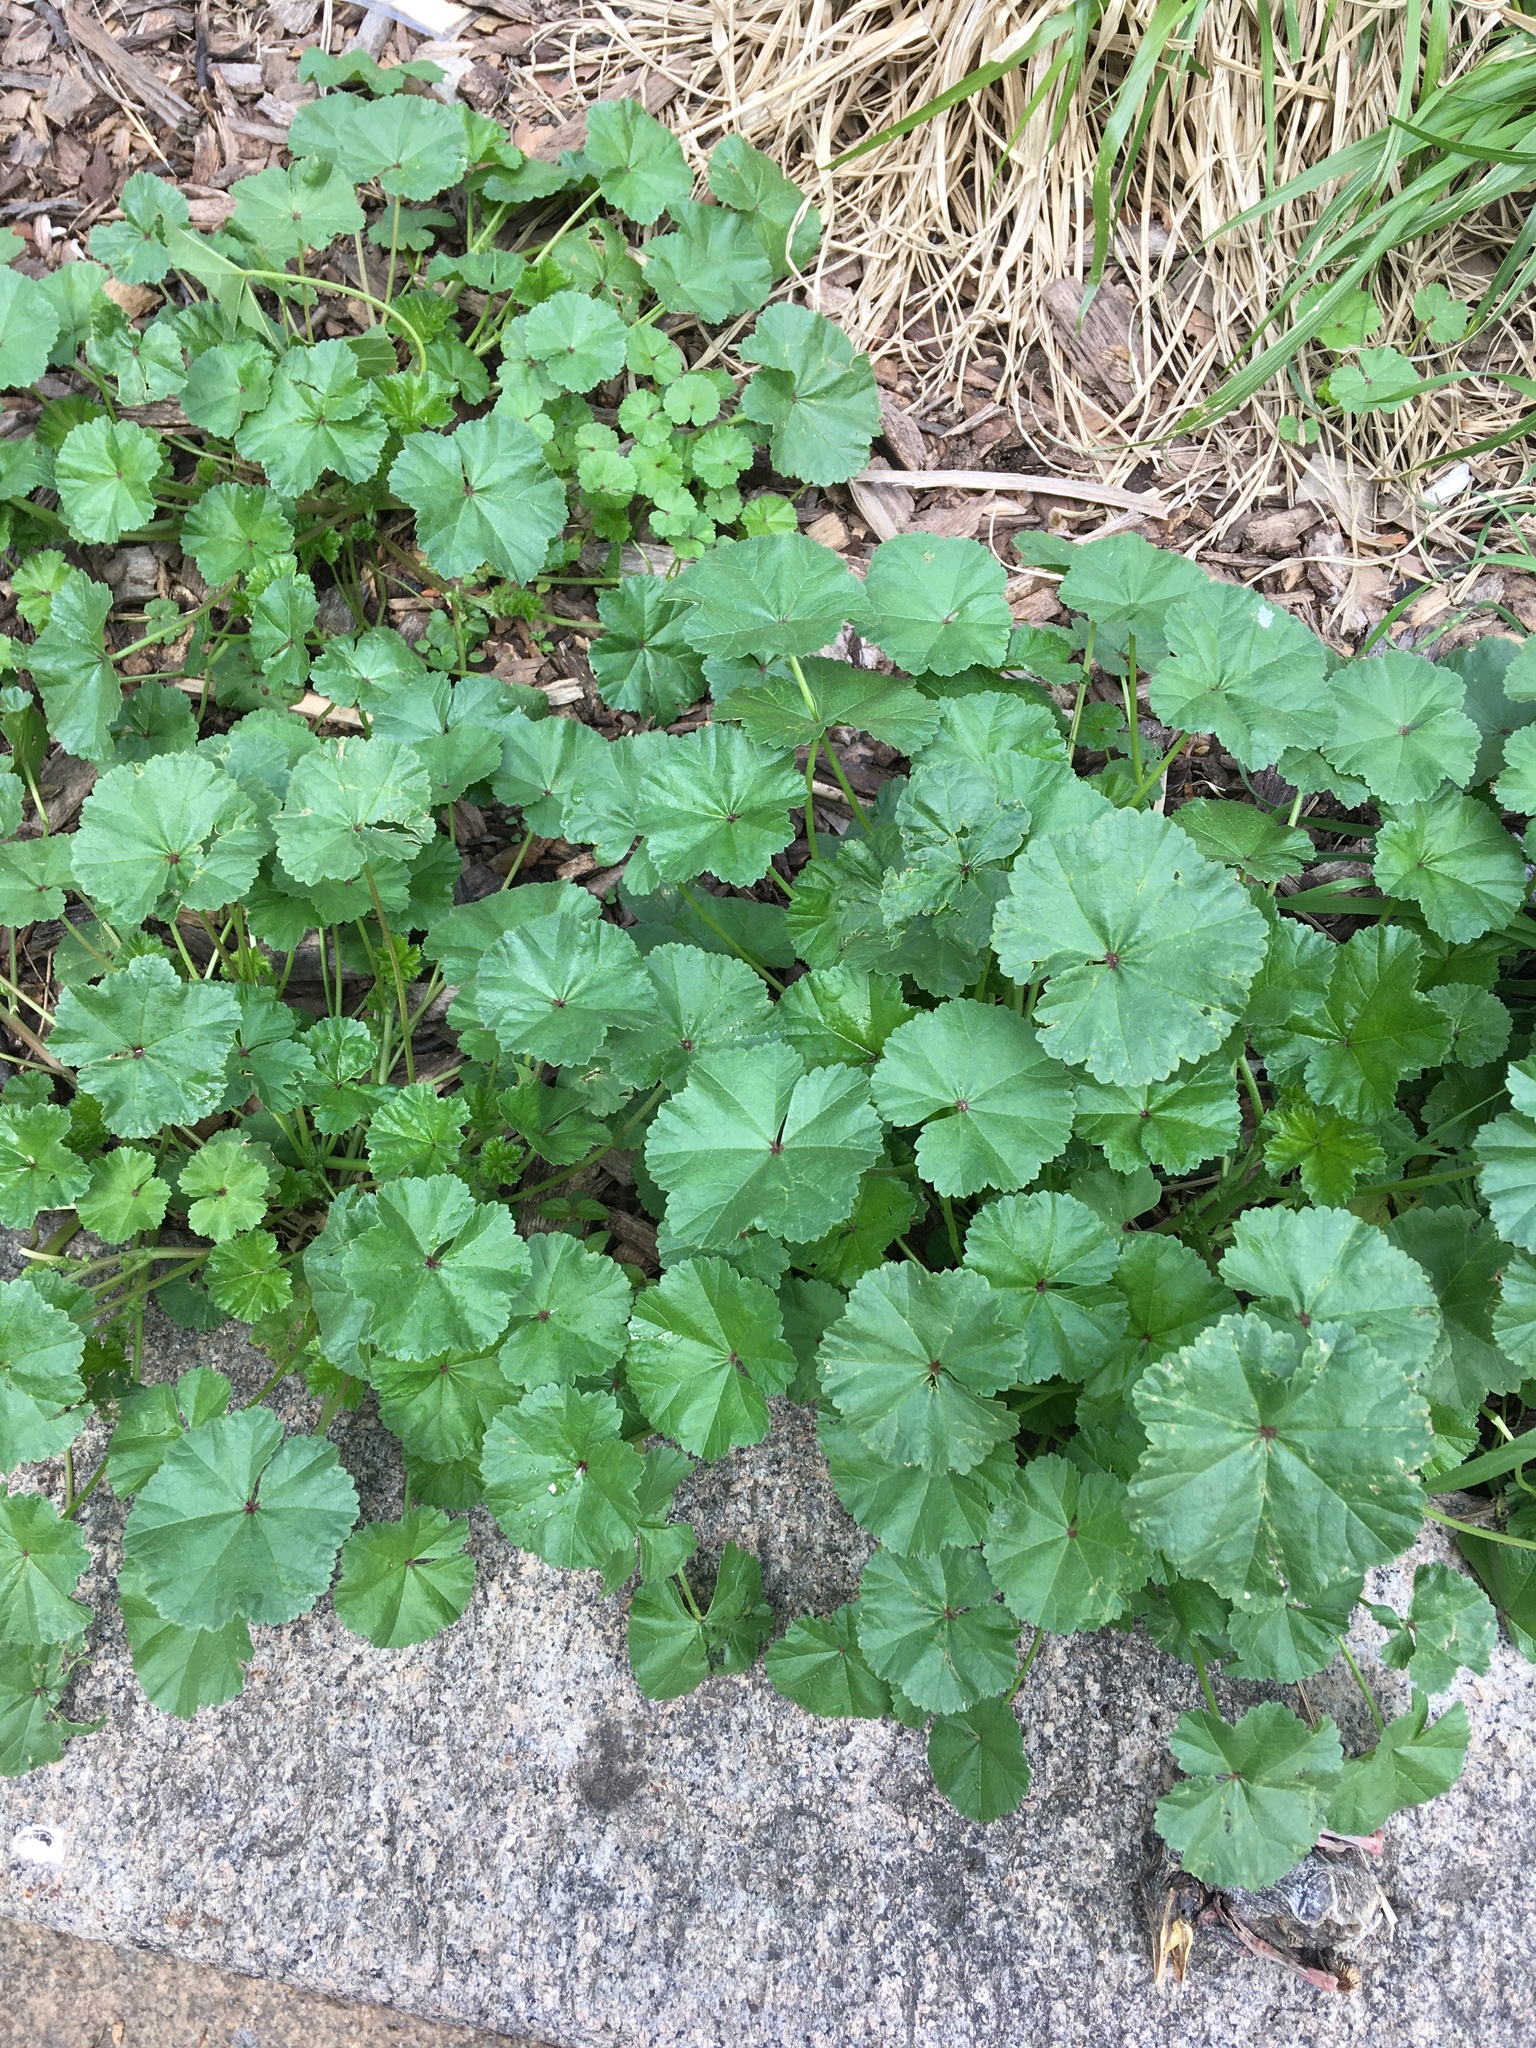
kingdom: Plantae
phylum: Tracheophyta
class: Magnoliopsida
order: Malvales
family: Malvaceae
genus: Malva
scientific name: Malva neglecta
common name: Common mallow
